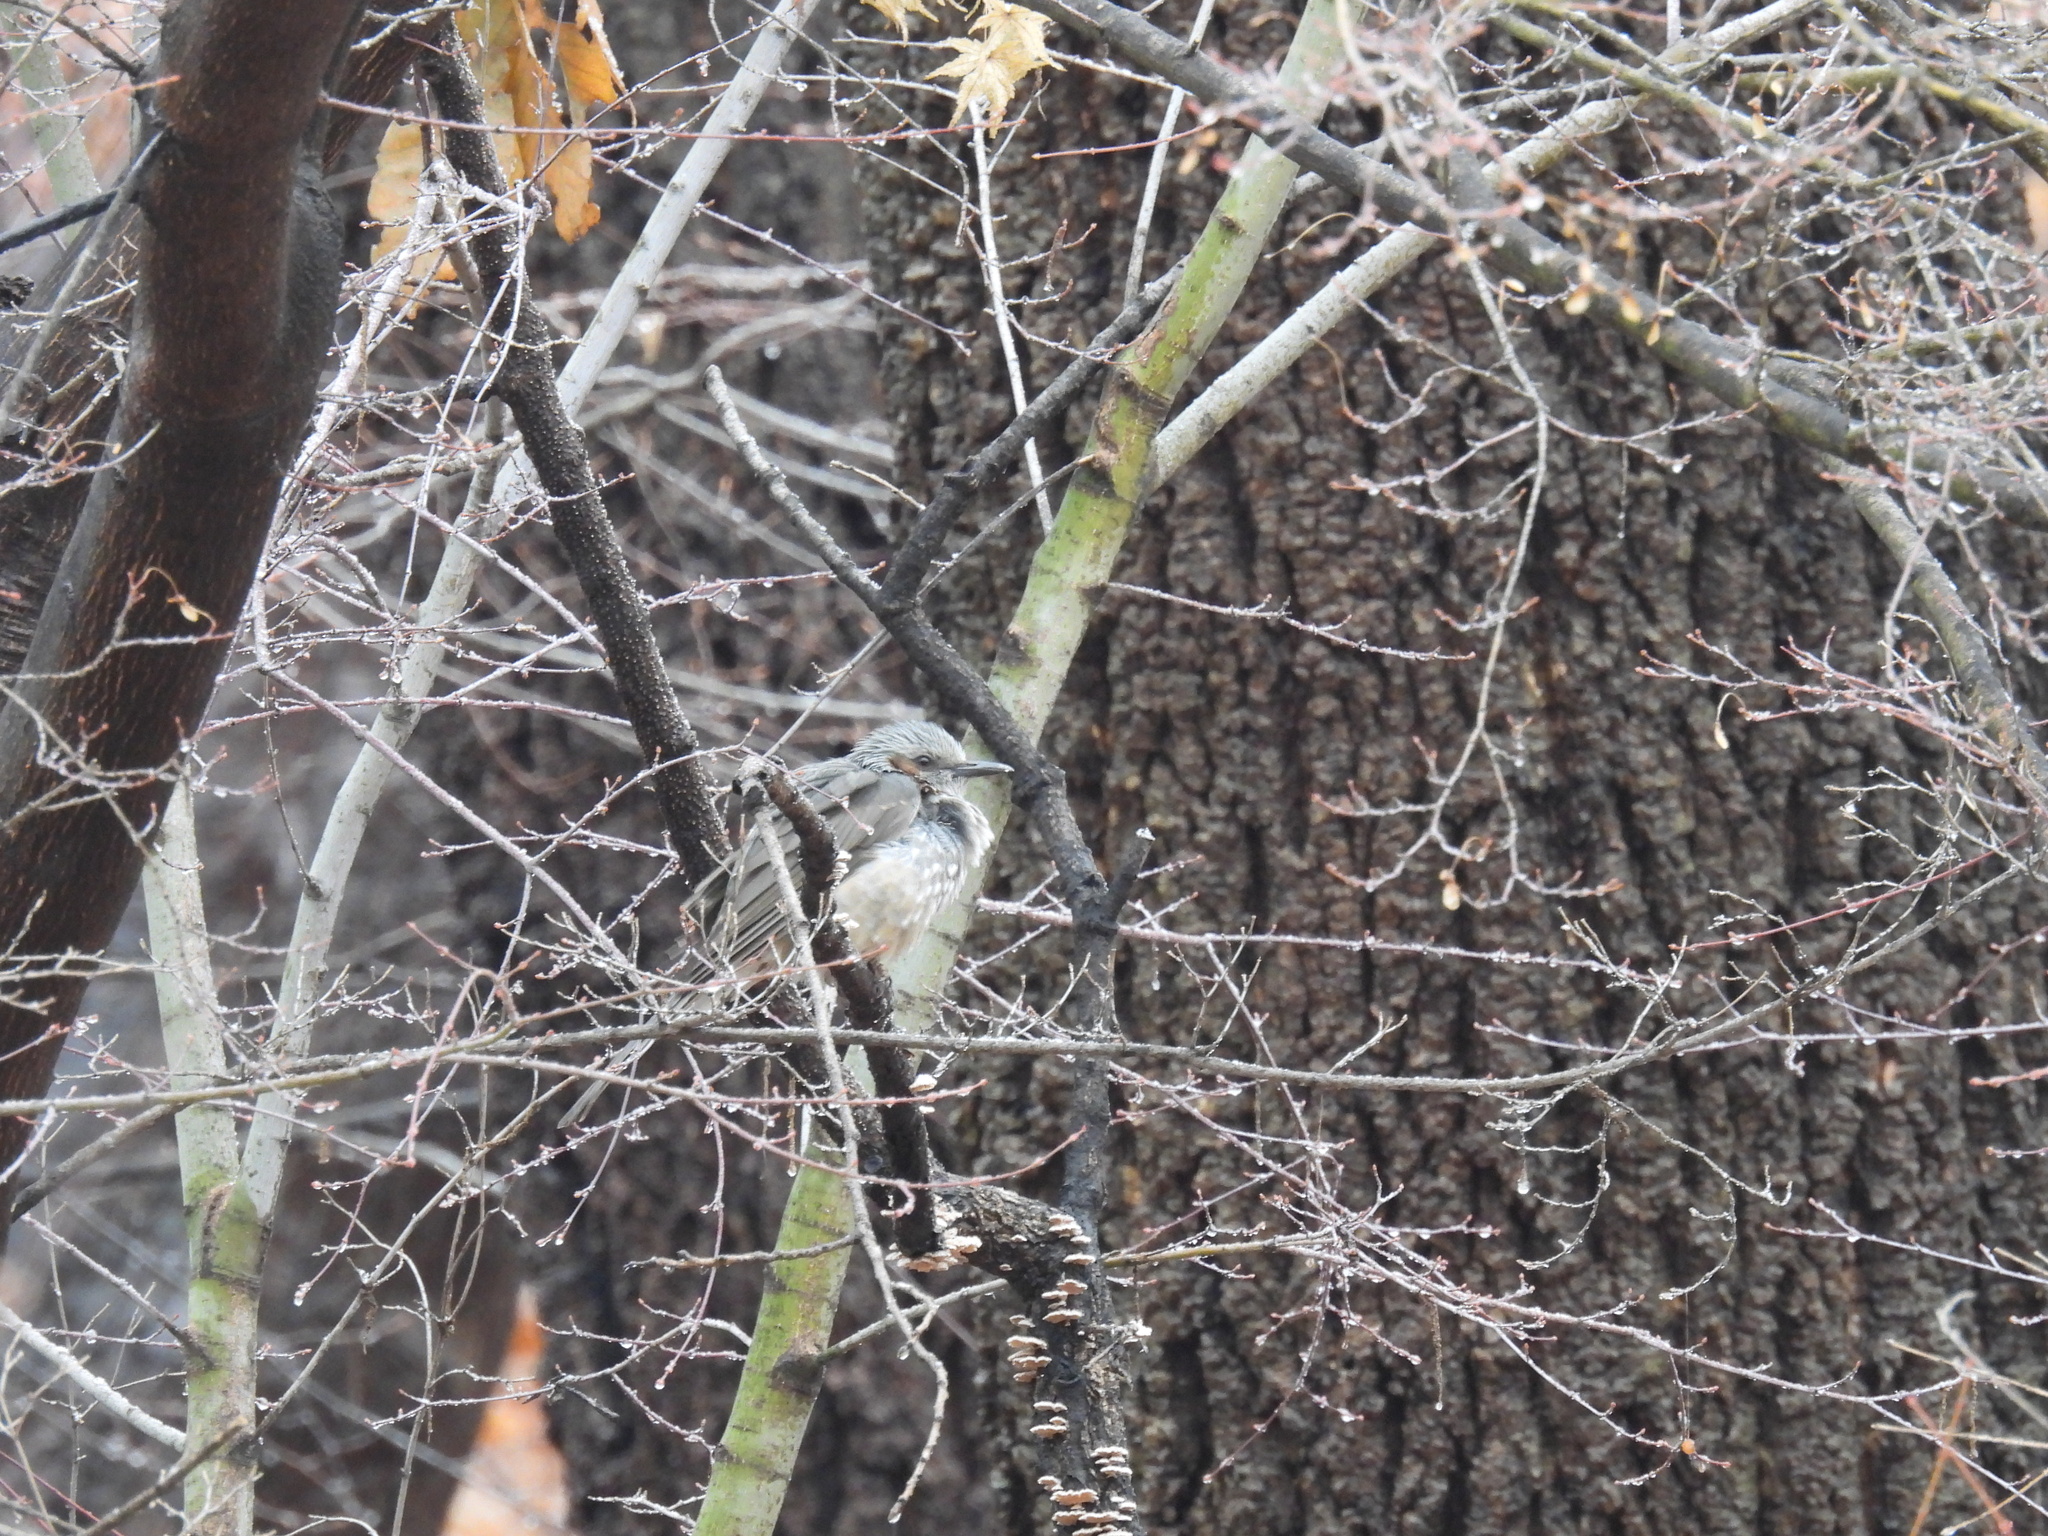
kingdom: Animalia
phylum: Chordata
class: Aves
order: Passeriformes
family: Pycnonotidae
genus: Hypsipetes
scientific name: Hypsipetes amaurotis
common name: Brown-eared bulbul
